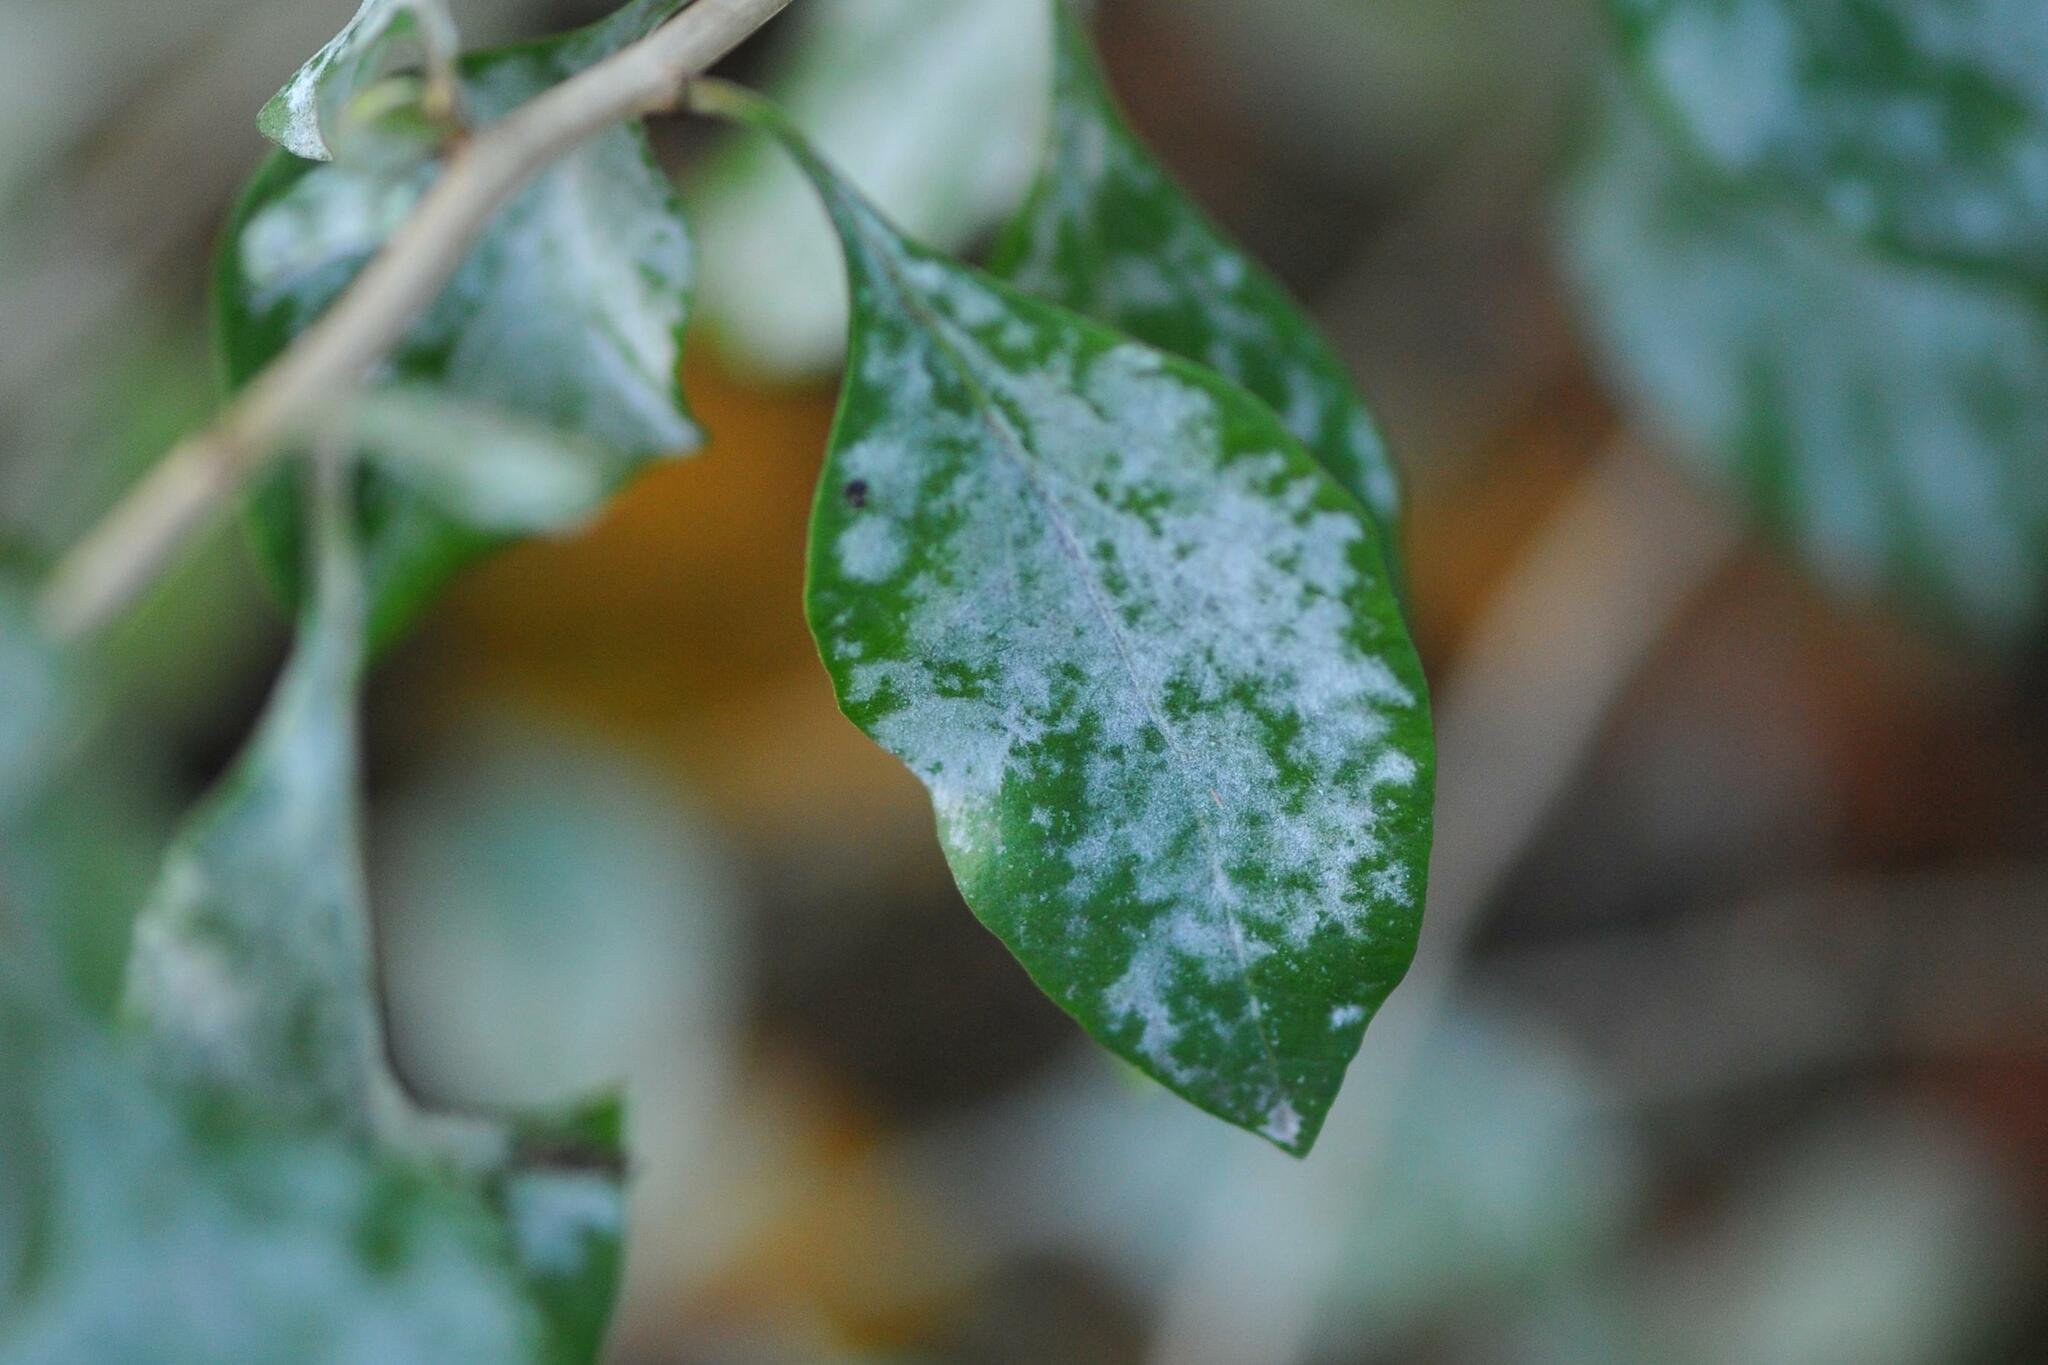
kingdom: Fungi
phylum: Ascomycota
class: Leotiomycetes
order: Helotiales
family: Erysiphaceae
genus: Erysiphe
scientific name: Erysiphe mougeotii
